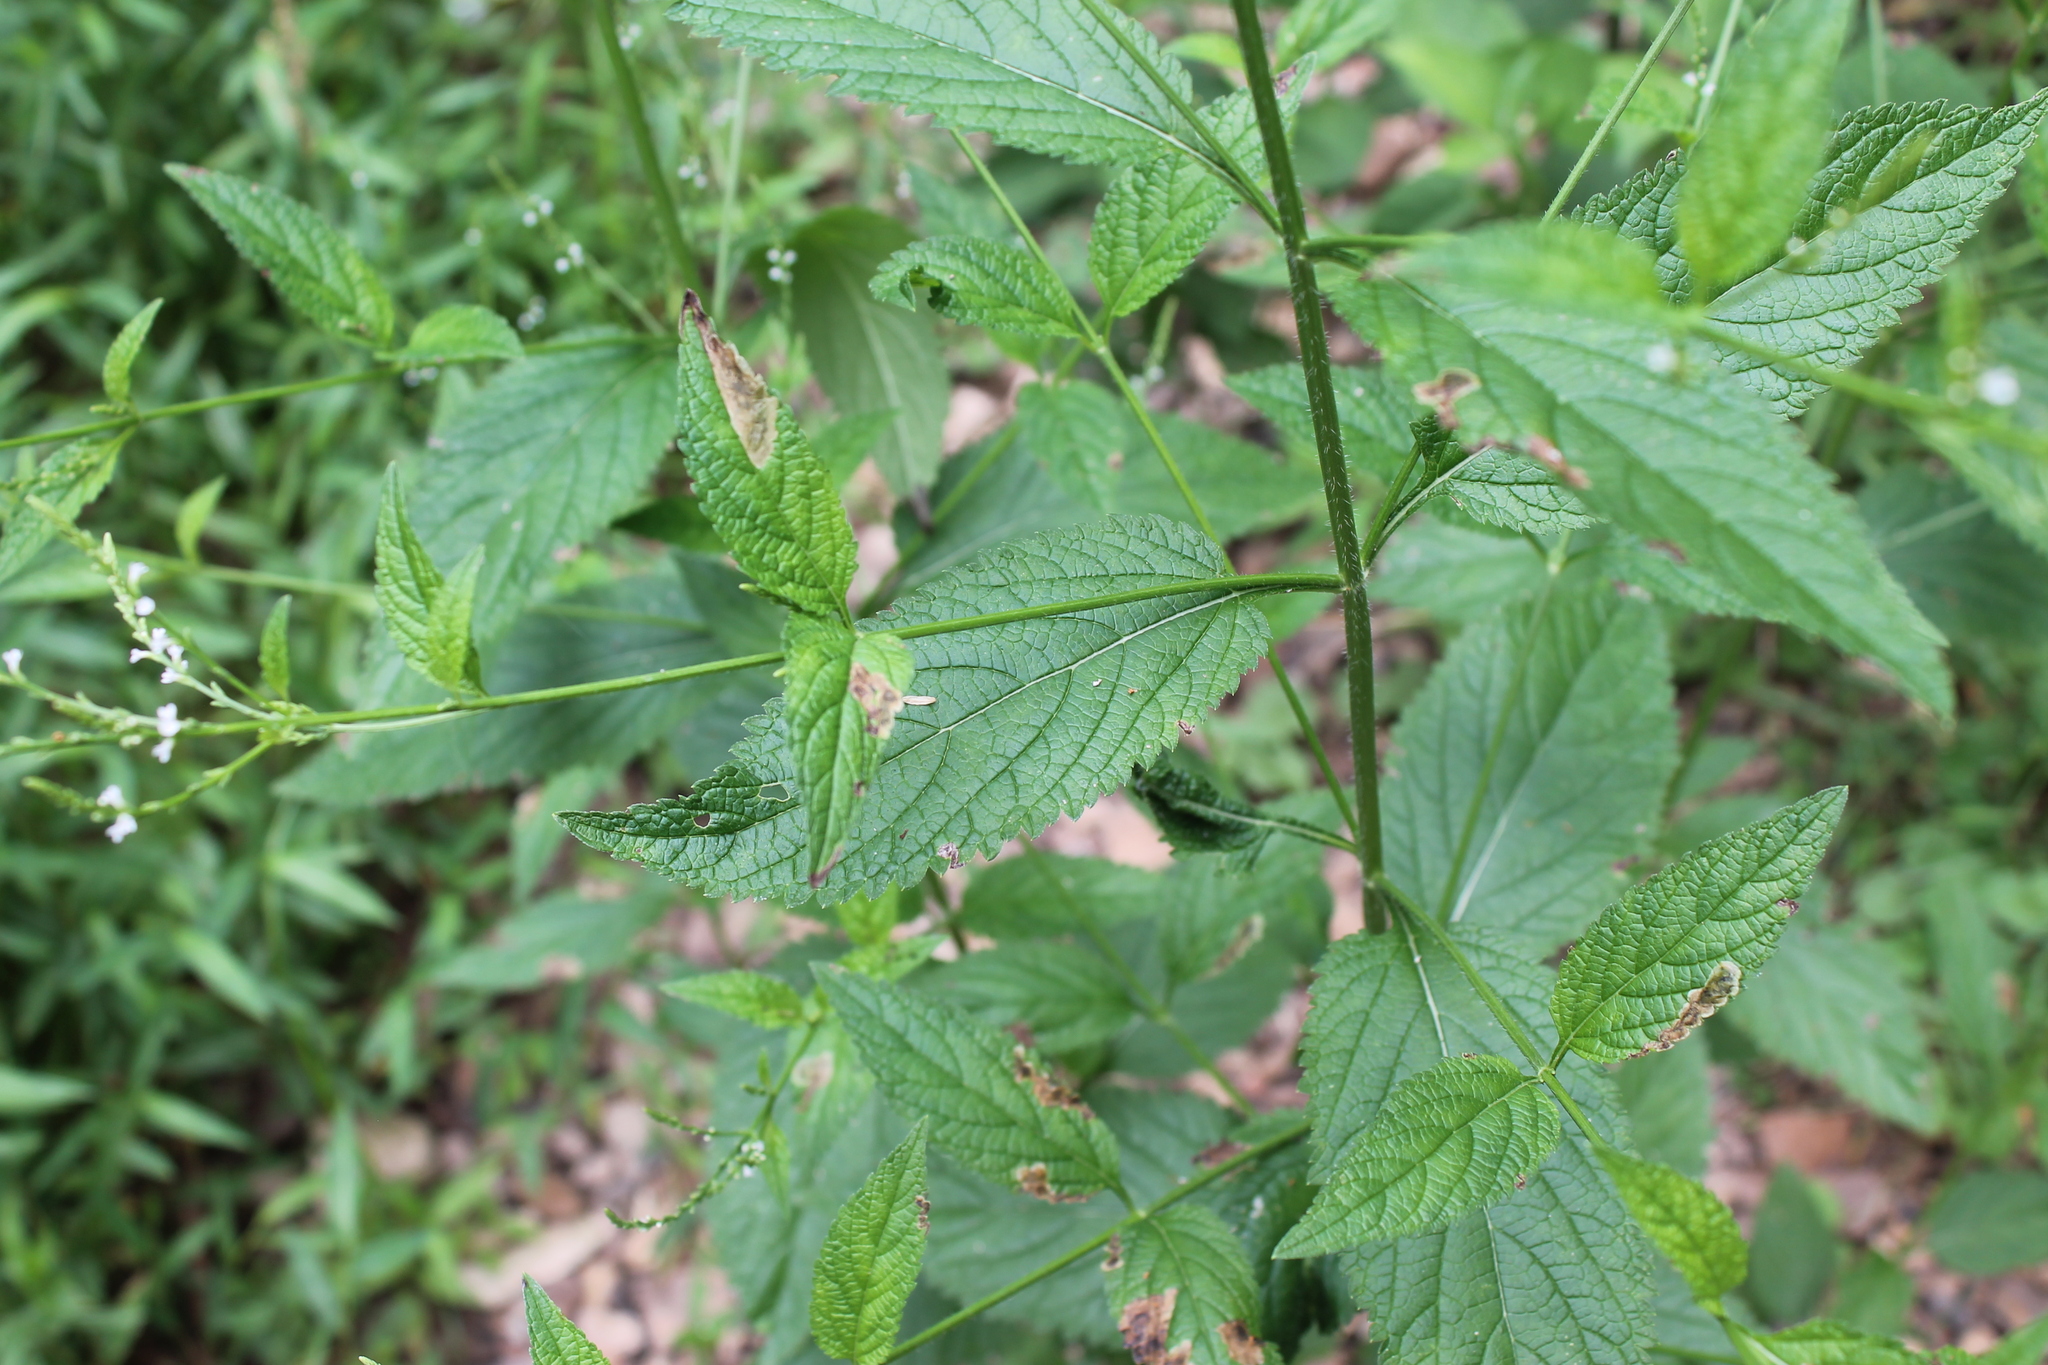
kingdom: Plantae
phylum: Tracheophyta
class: Magnoliopsida
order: Lamiales
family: Verbenaceae
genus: Verbena
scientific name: Verbena urticifolia
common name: Nettle-leaved vervain
